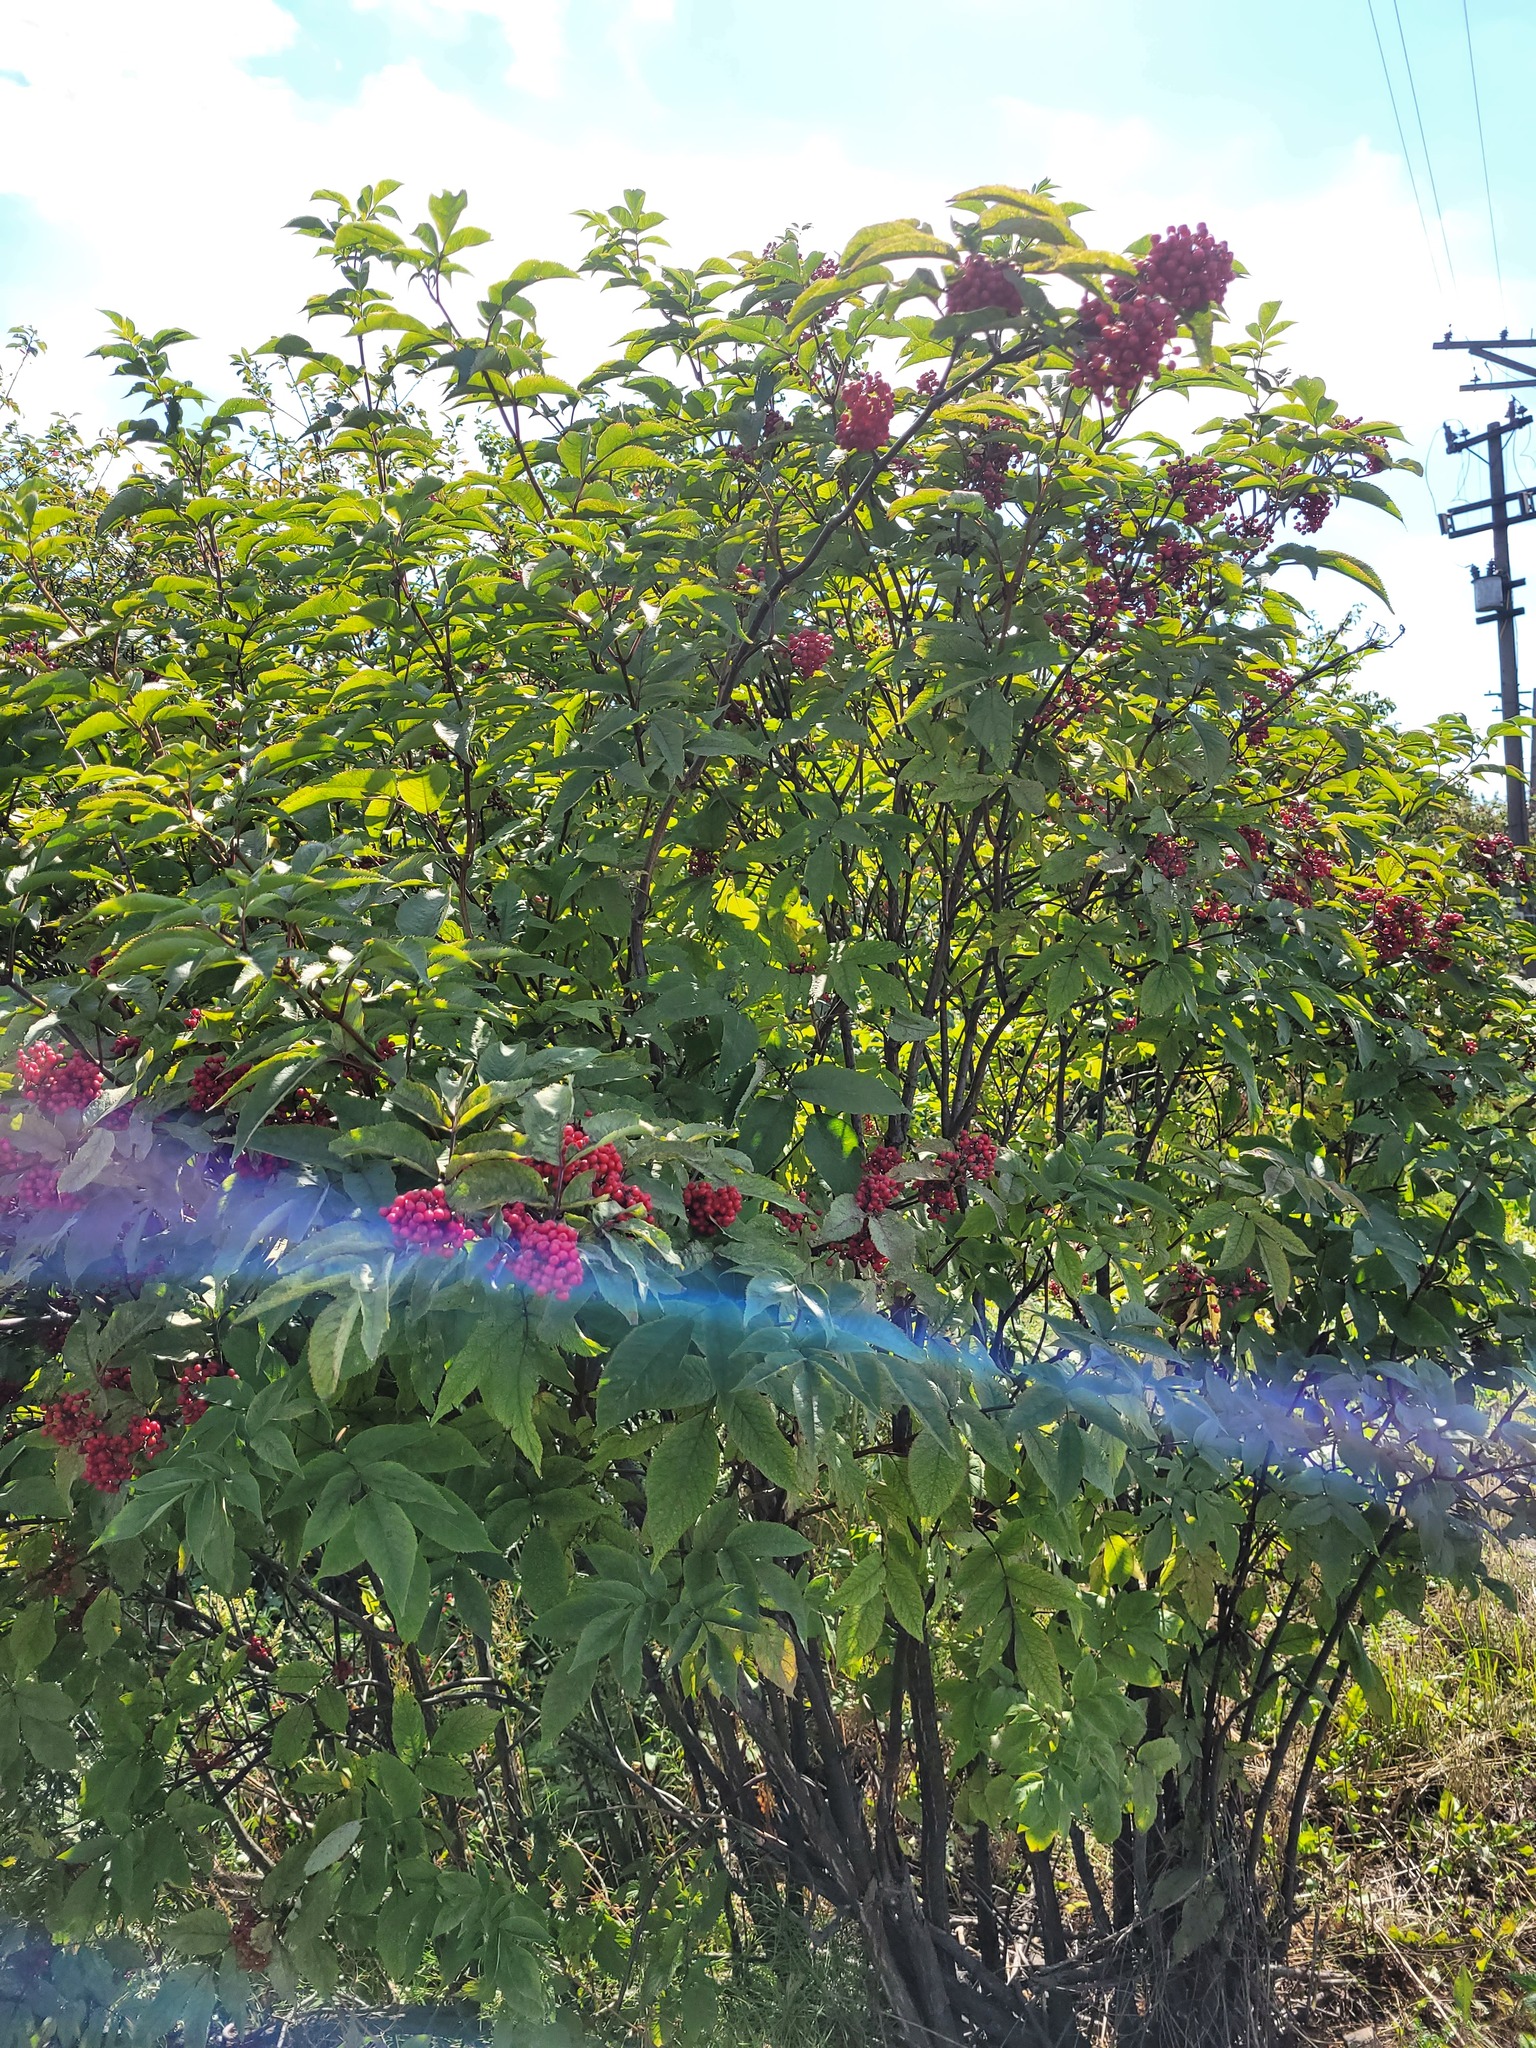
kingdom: Plantae
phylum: Tracheophyta
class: Magnoliopsida
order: Dipsacales
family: Viburnaceae
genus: Sambucus
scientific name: Sambucus racemosa
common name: Red-berried elder
